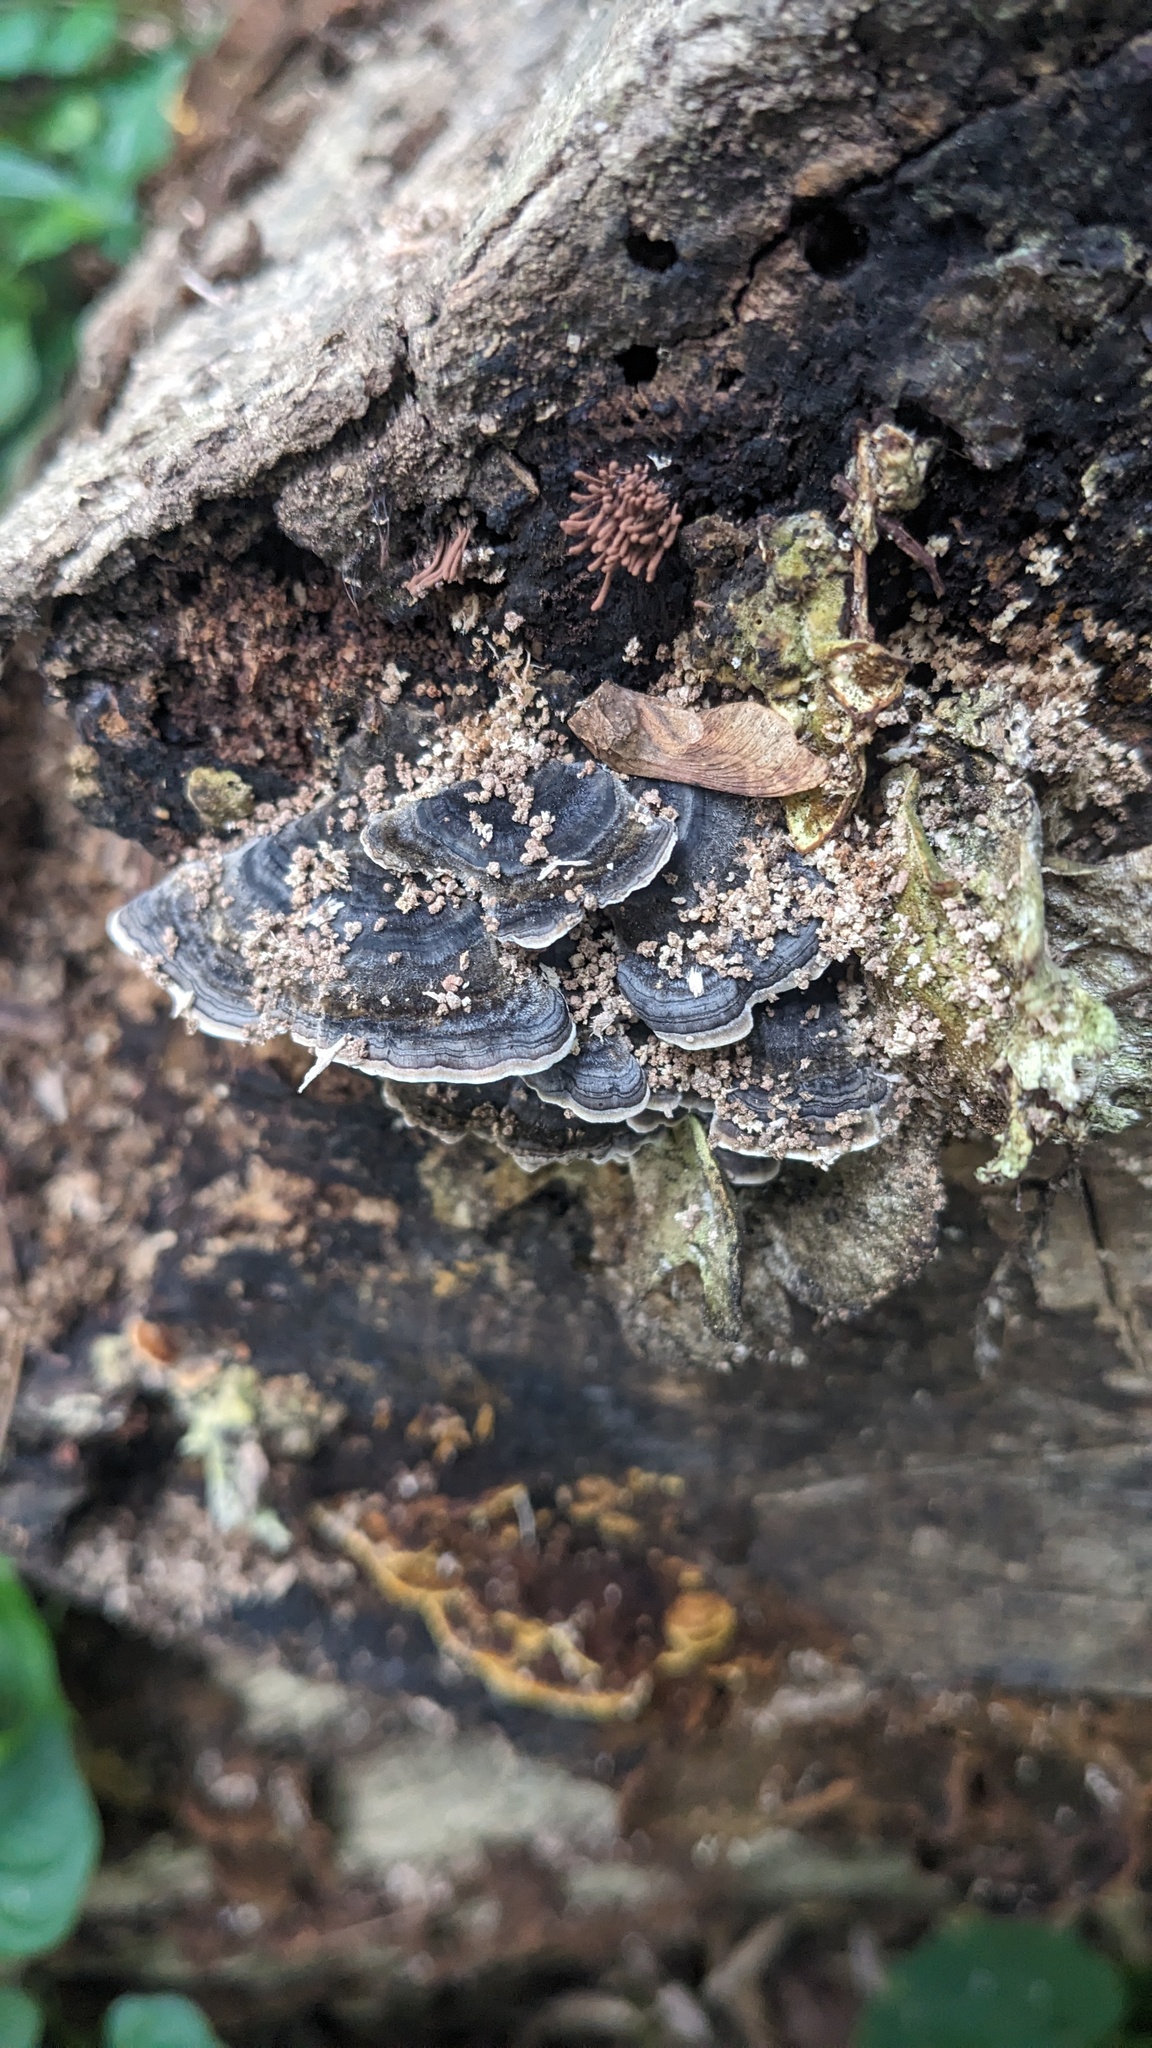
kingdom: Fungi
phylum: Basidiomycota
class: Agaricomycetes
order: Polyporales
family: Polyporaceae
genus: Trametes
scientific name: Trametes versicolor
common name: Turkeytail
